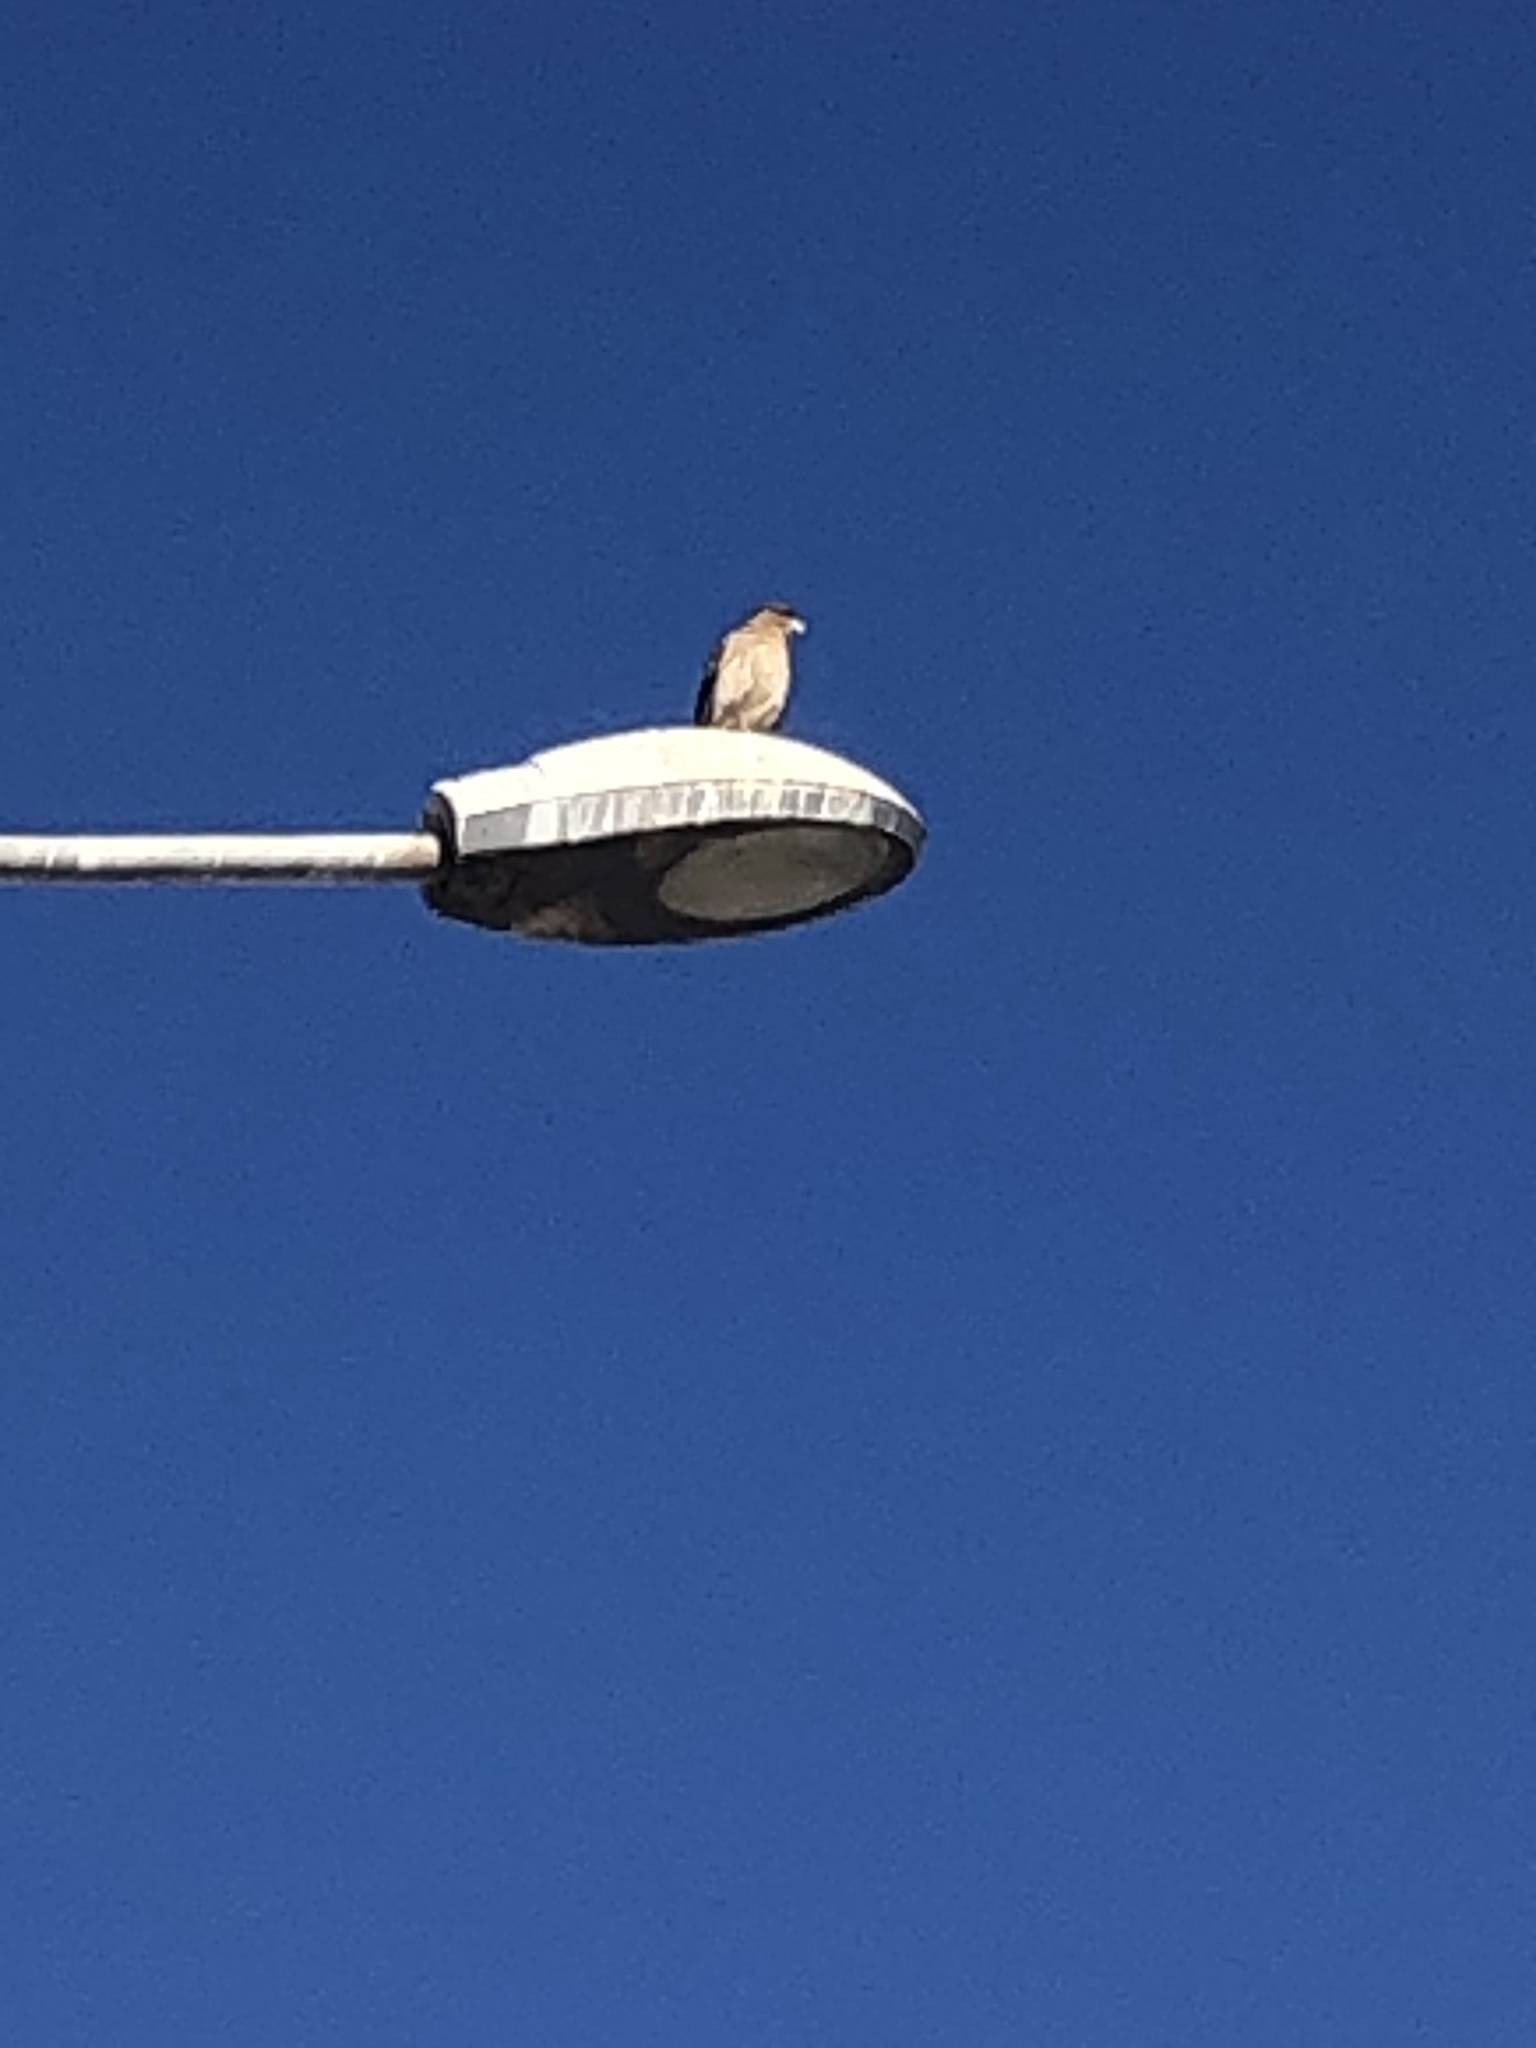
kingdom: Animalia
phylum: Chordata
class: Aves
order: Falconiformes
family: Falconidae
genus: Daptrius
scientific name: Daptrius
